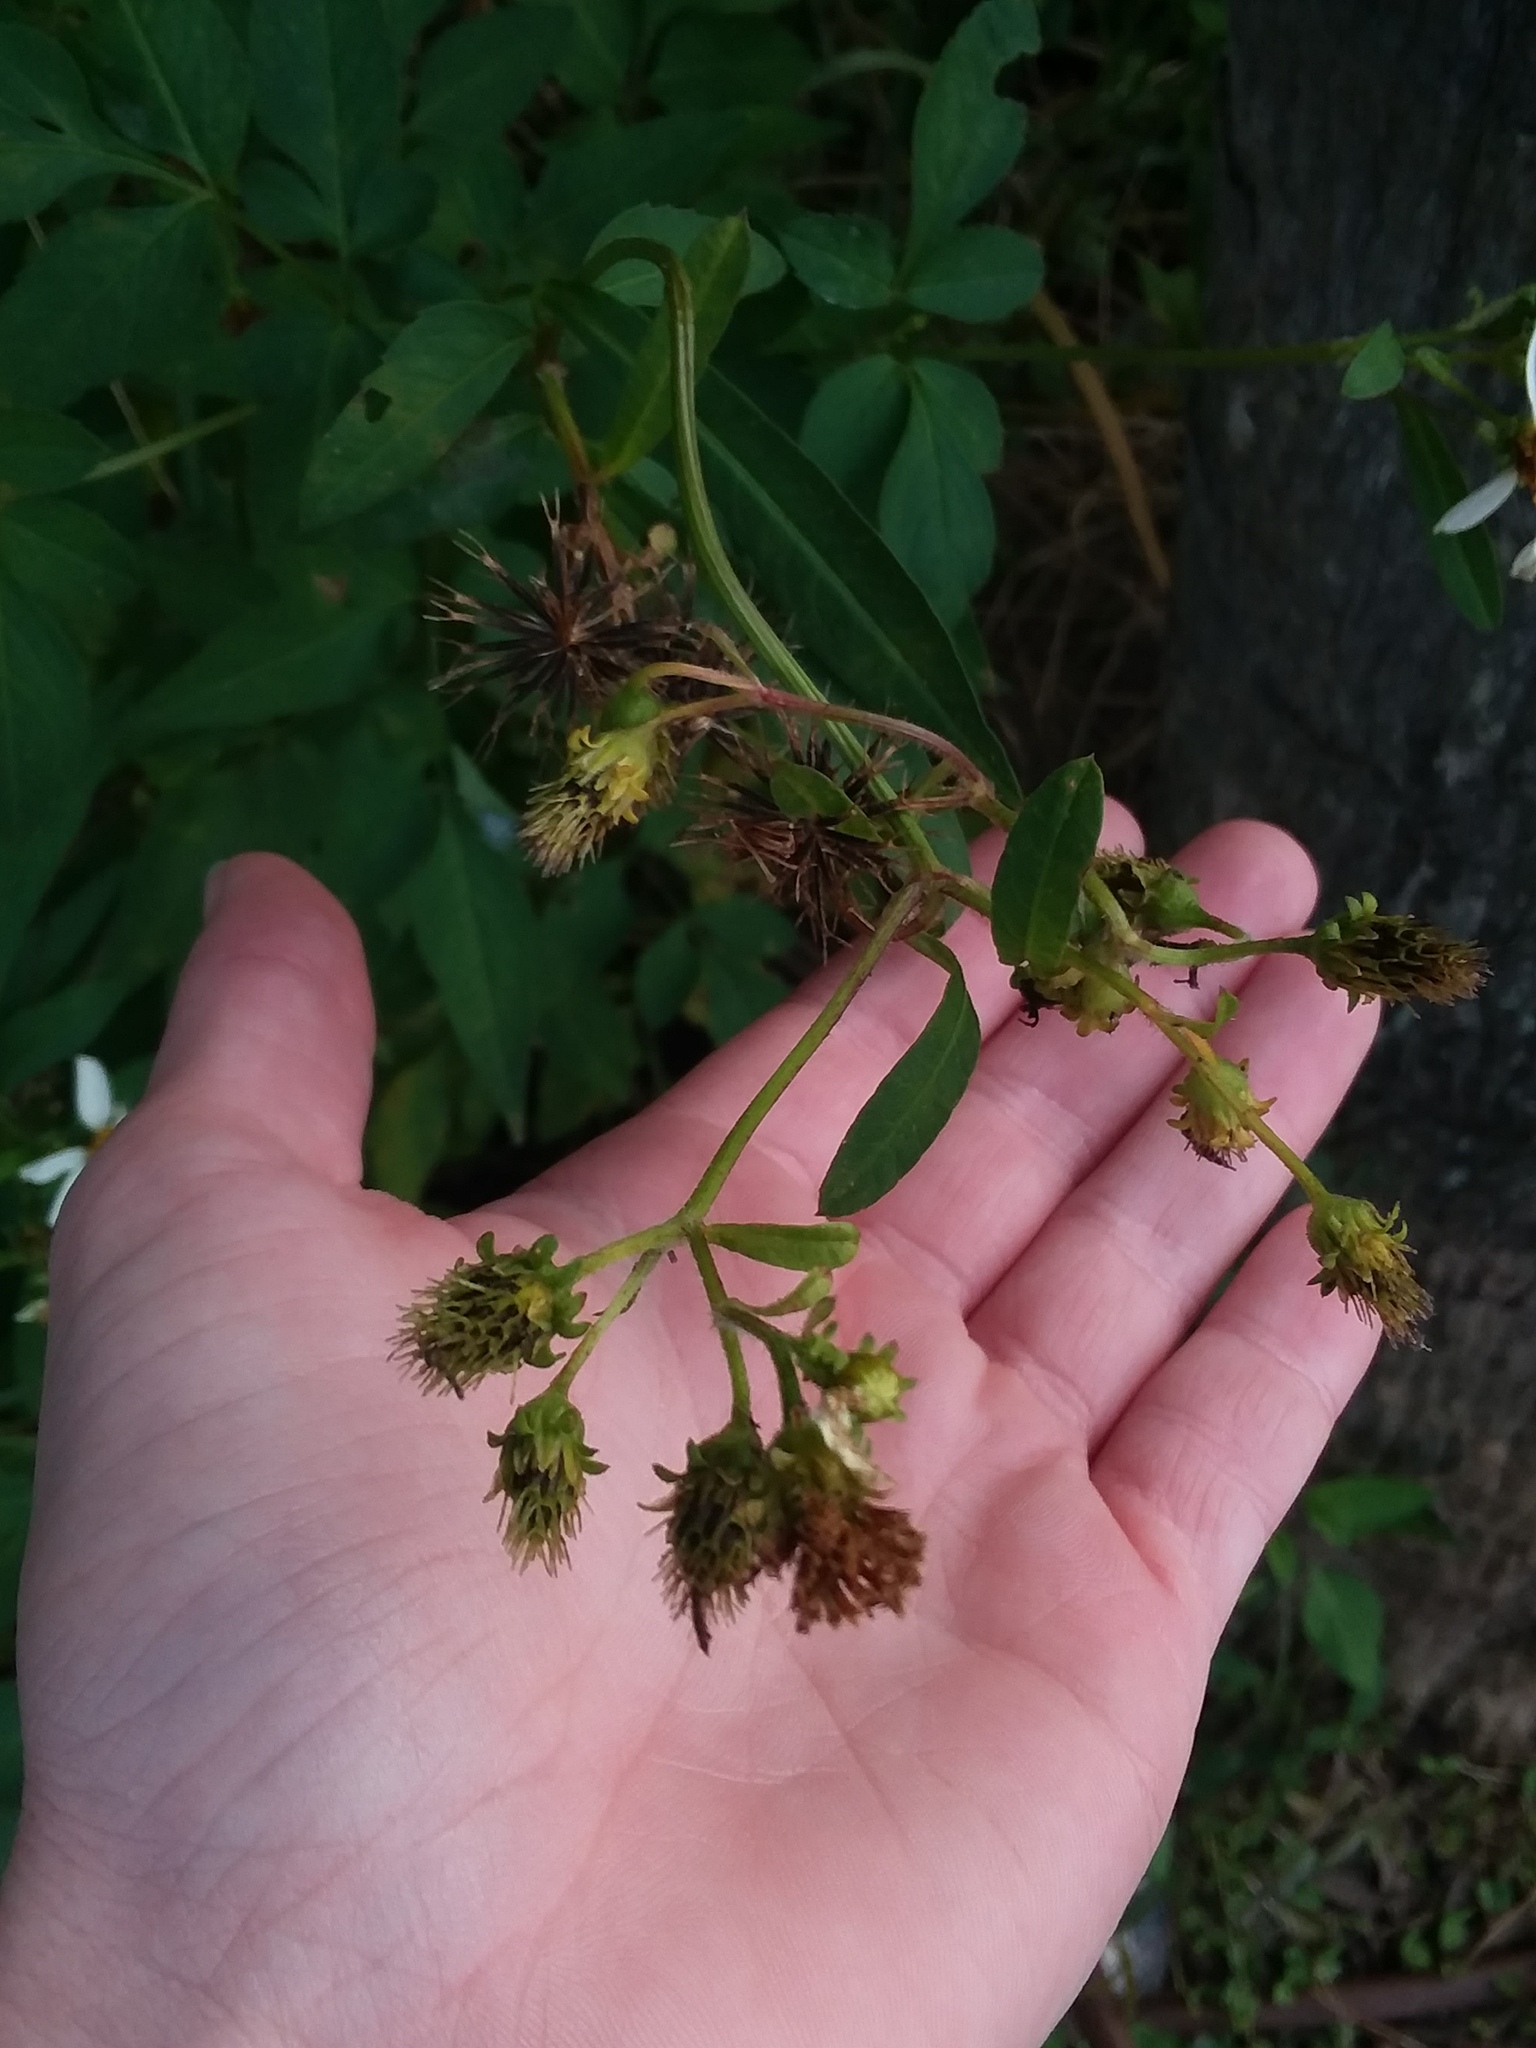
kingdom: Plantae
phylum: Tracheophyta
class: Magnoliopsida
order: Asterales
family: Asteraceae
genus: Bidens
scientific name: Bidens alba
